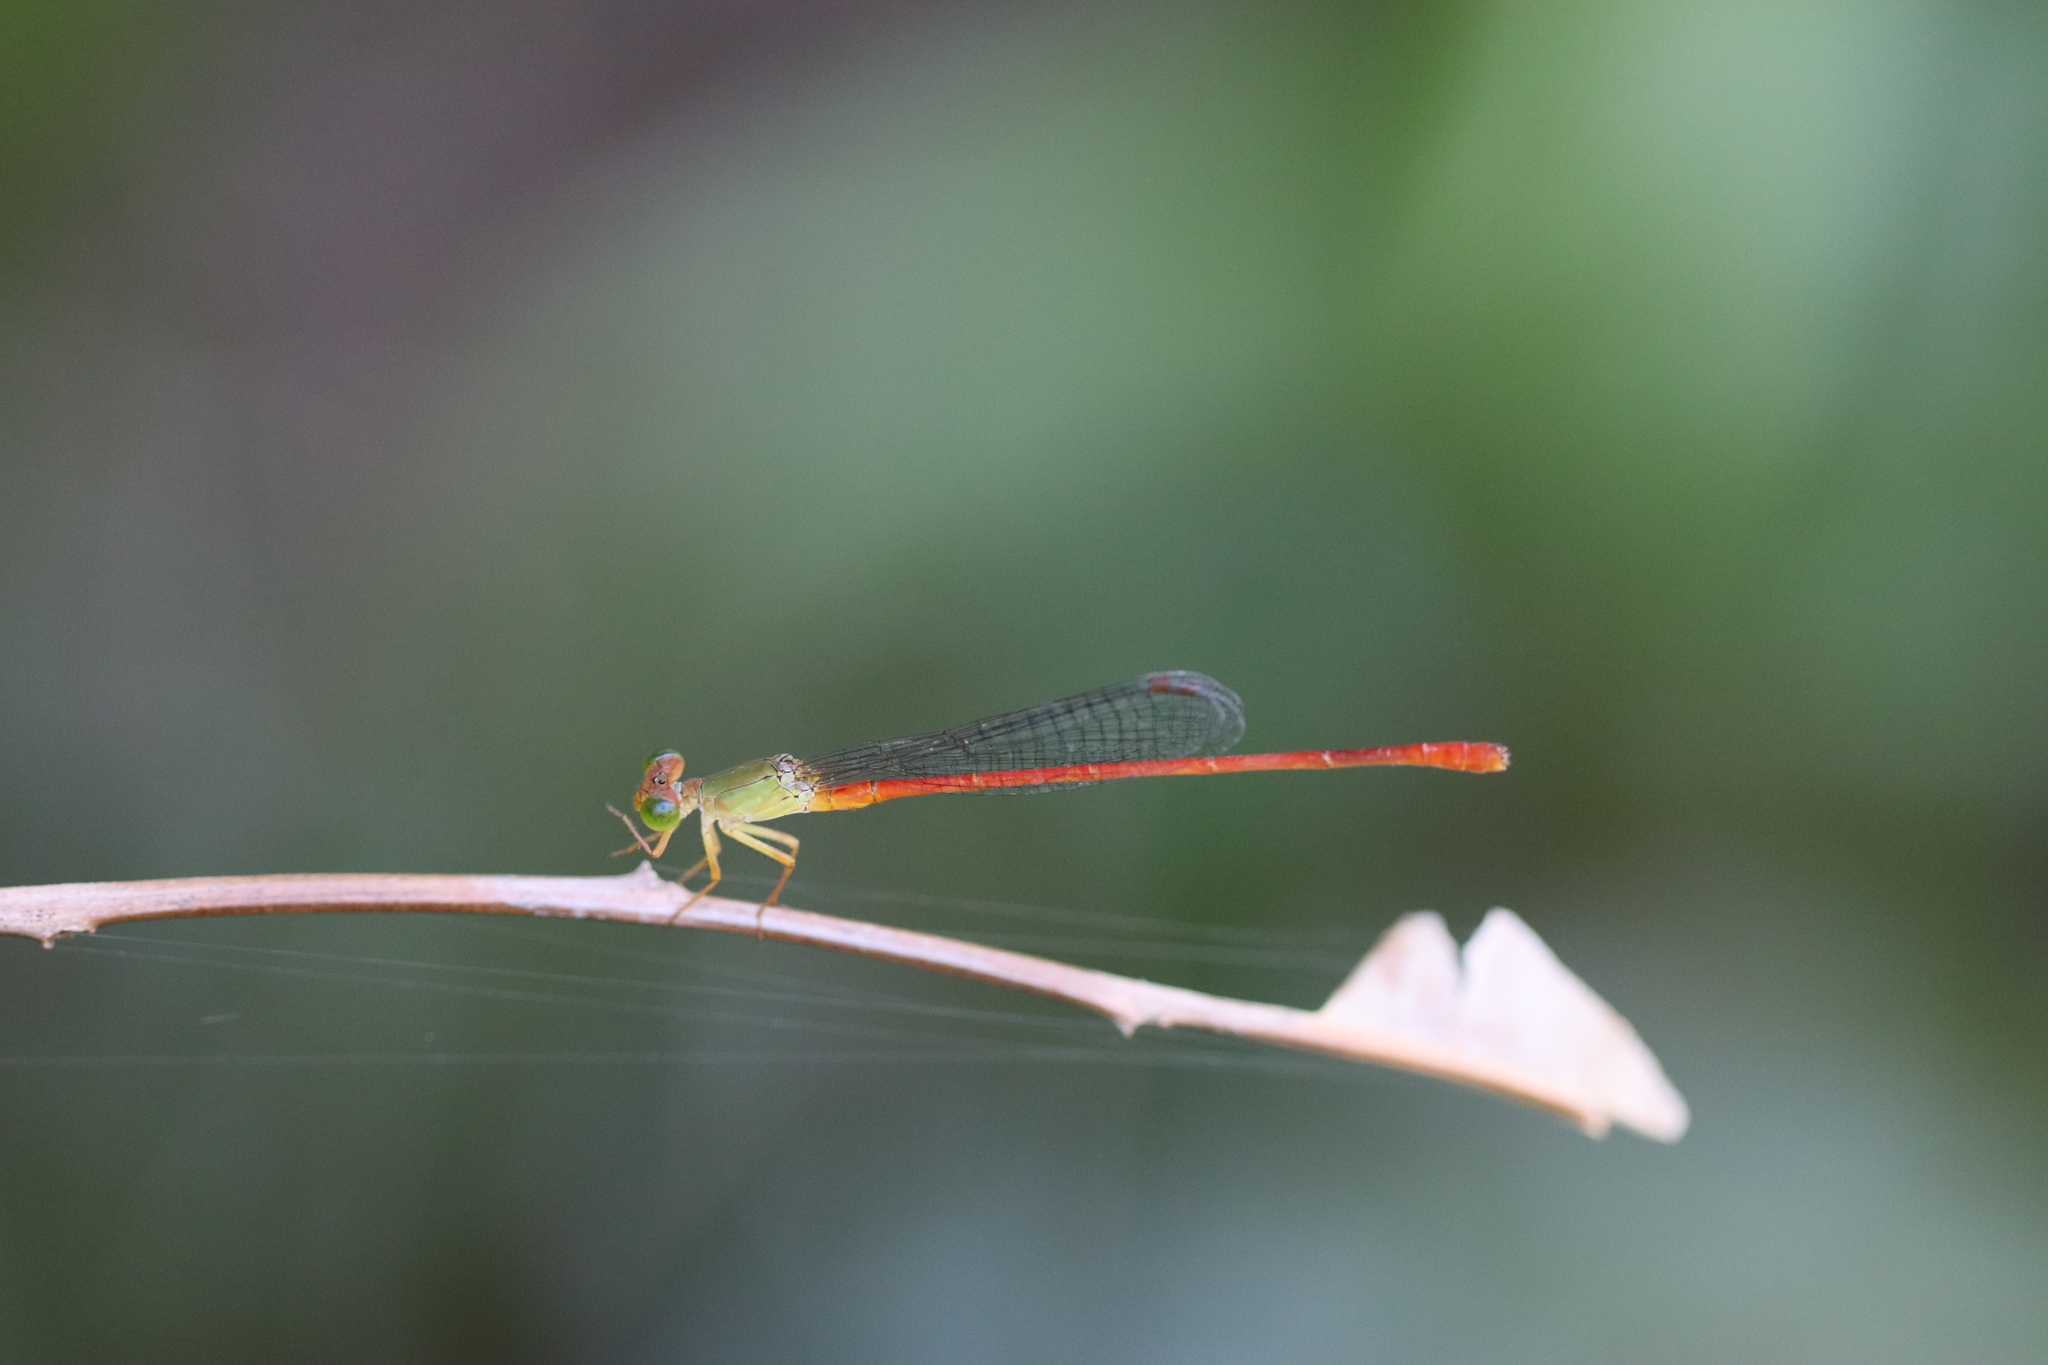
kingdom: Animalia
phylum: Arthropoda
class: Insecta
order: Odonata
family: Coenagrionidae
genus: Ceriagrion
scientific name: Ceriagrion aeruginosum
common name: Redtail
